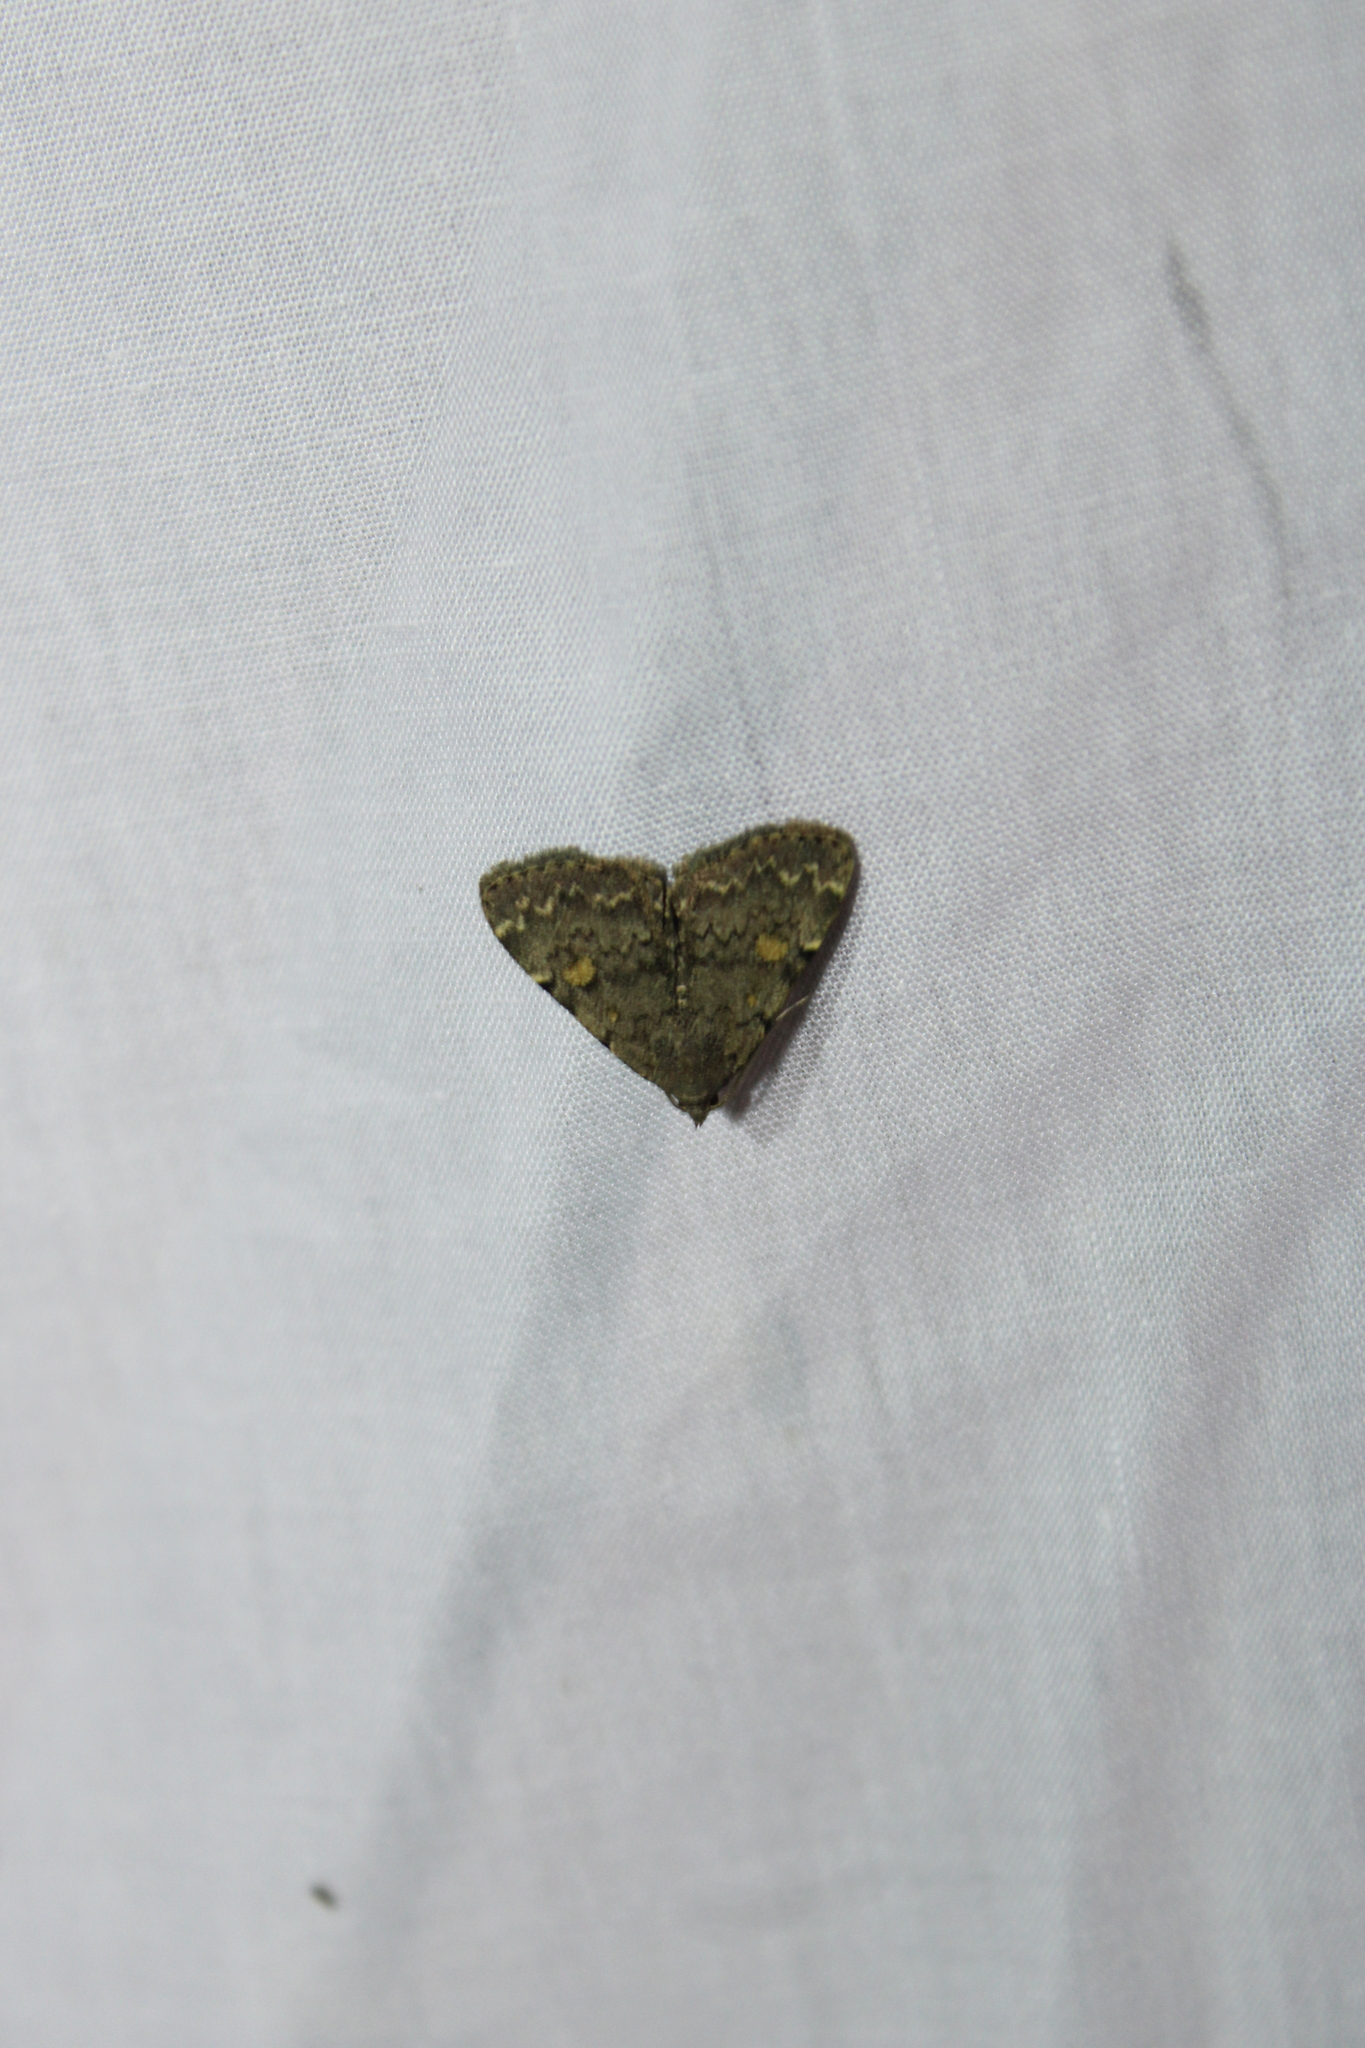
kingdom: Animalia
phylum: Arthropoda
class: Insecta
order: Lepidoptera
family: Erebidae
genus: Idia
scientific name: Idia aemula
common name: Common idia moth
